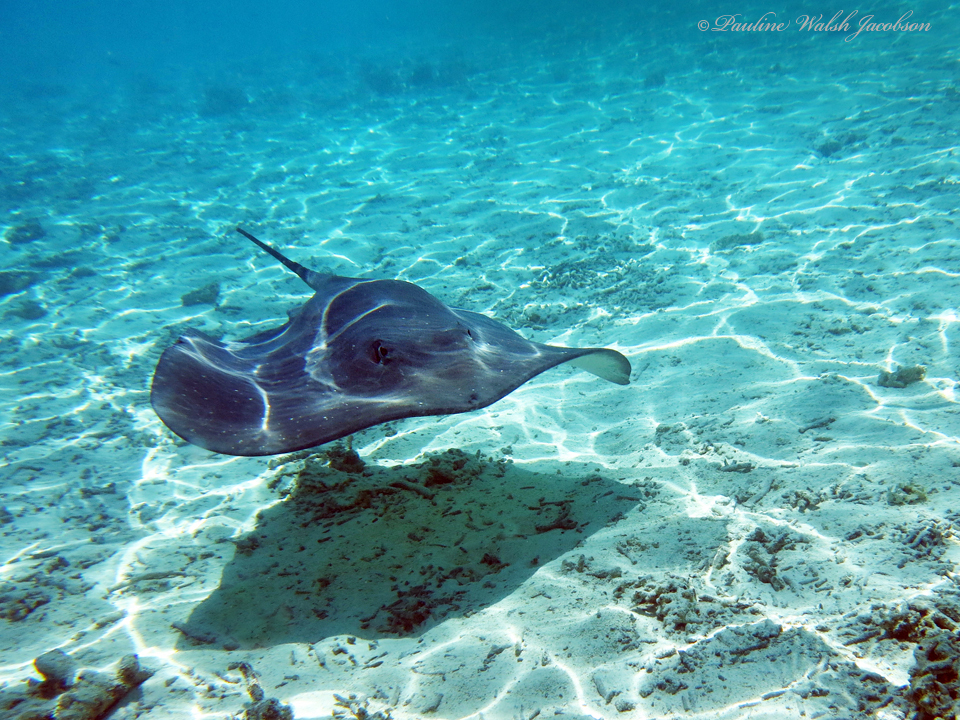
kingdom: Animalia
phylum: Chordata
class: Elasmobranchii
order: Myliobatiformes
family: Dasyatidae
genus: Pateobatis
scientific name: Pateobatis fai
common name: Pink whipray
